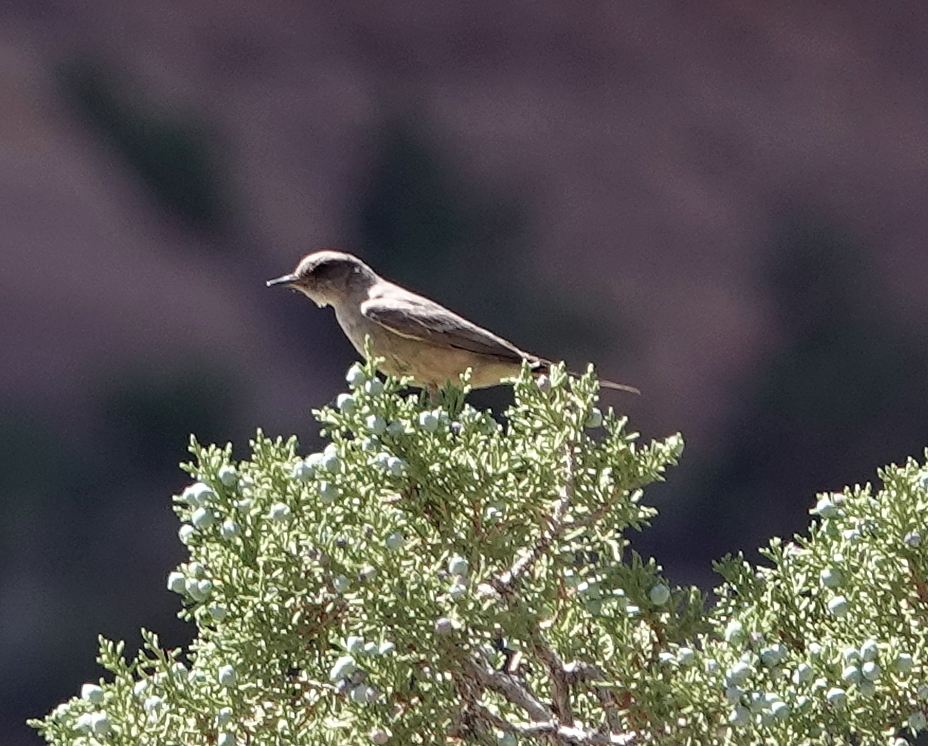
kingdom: Animalia
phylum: Chordata
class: Aves
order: Passeriformes
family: Tyrannidae
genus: Sayornis
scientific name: Sayornis saya
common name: Say's phoebe
